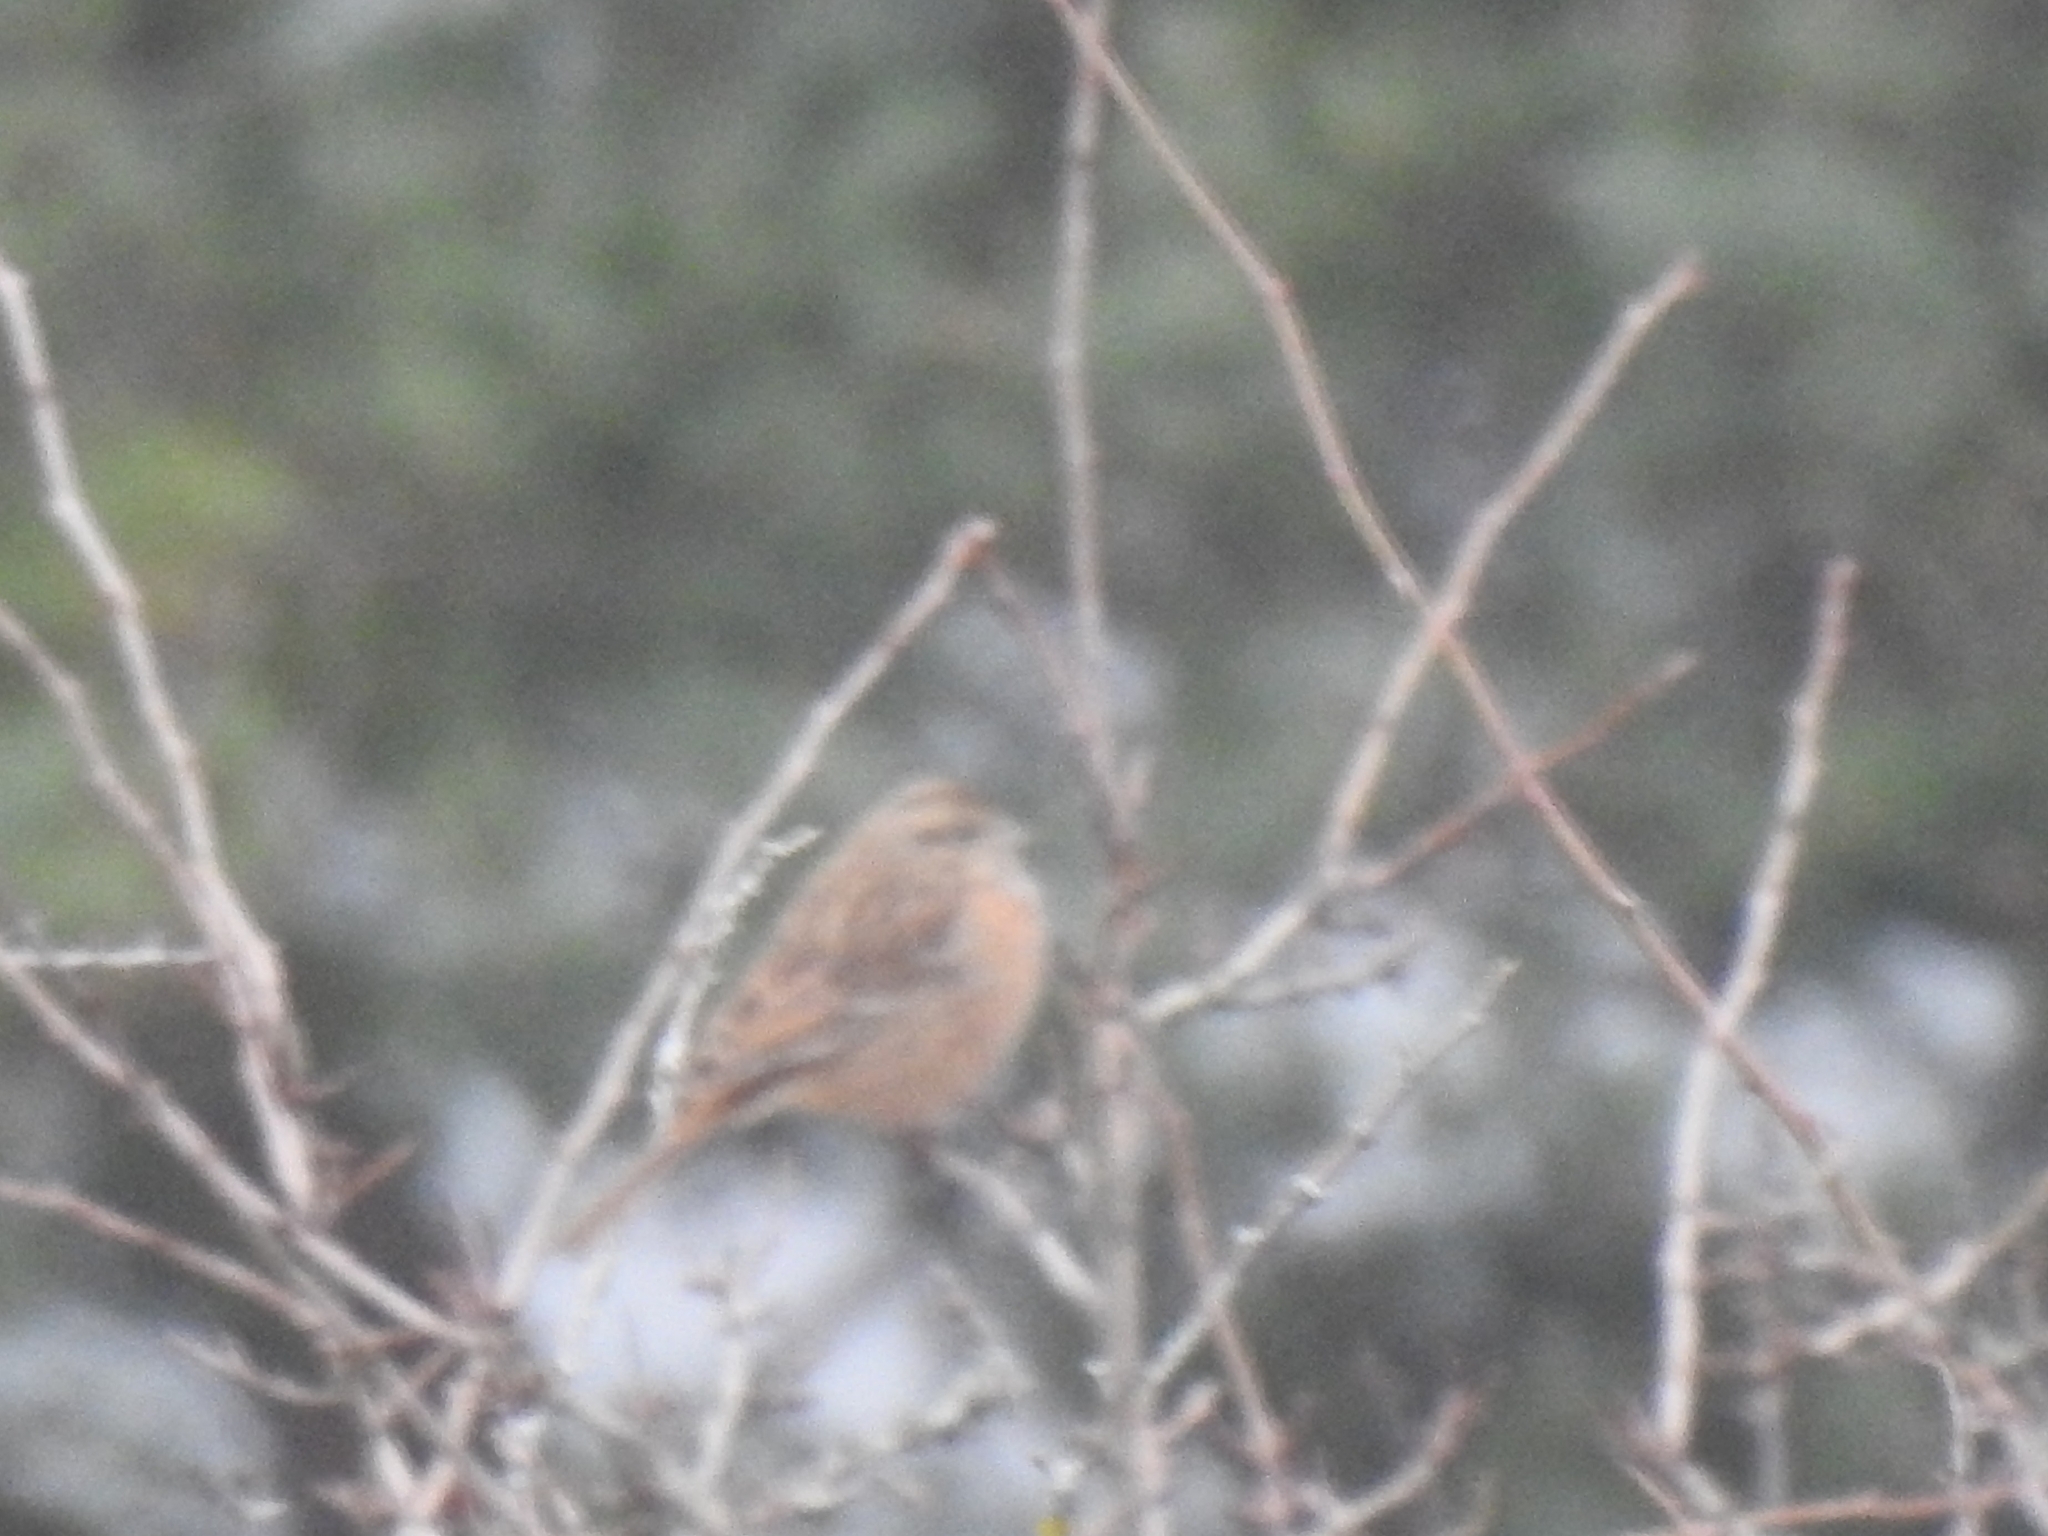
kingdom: Animalia
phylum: Chordata
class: Aves
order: Passeriformes
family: Emberizidae
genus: Emberiza
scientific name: Emberiza cia
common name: Rock bunting
